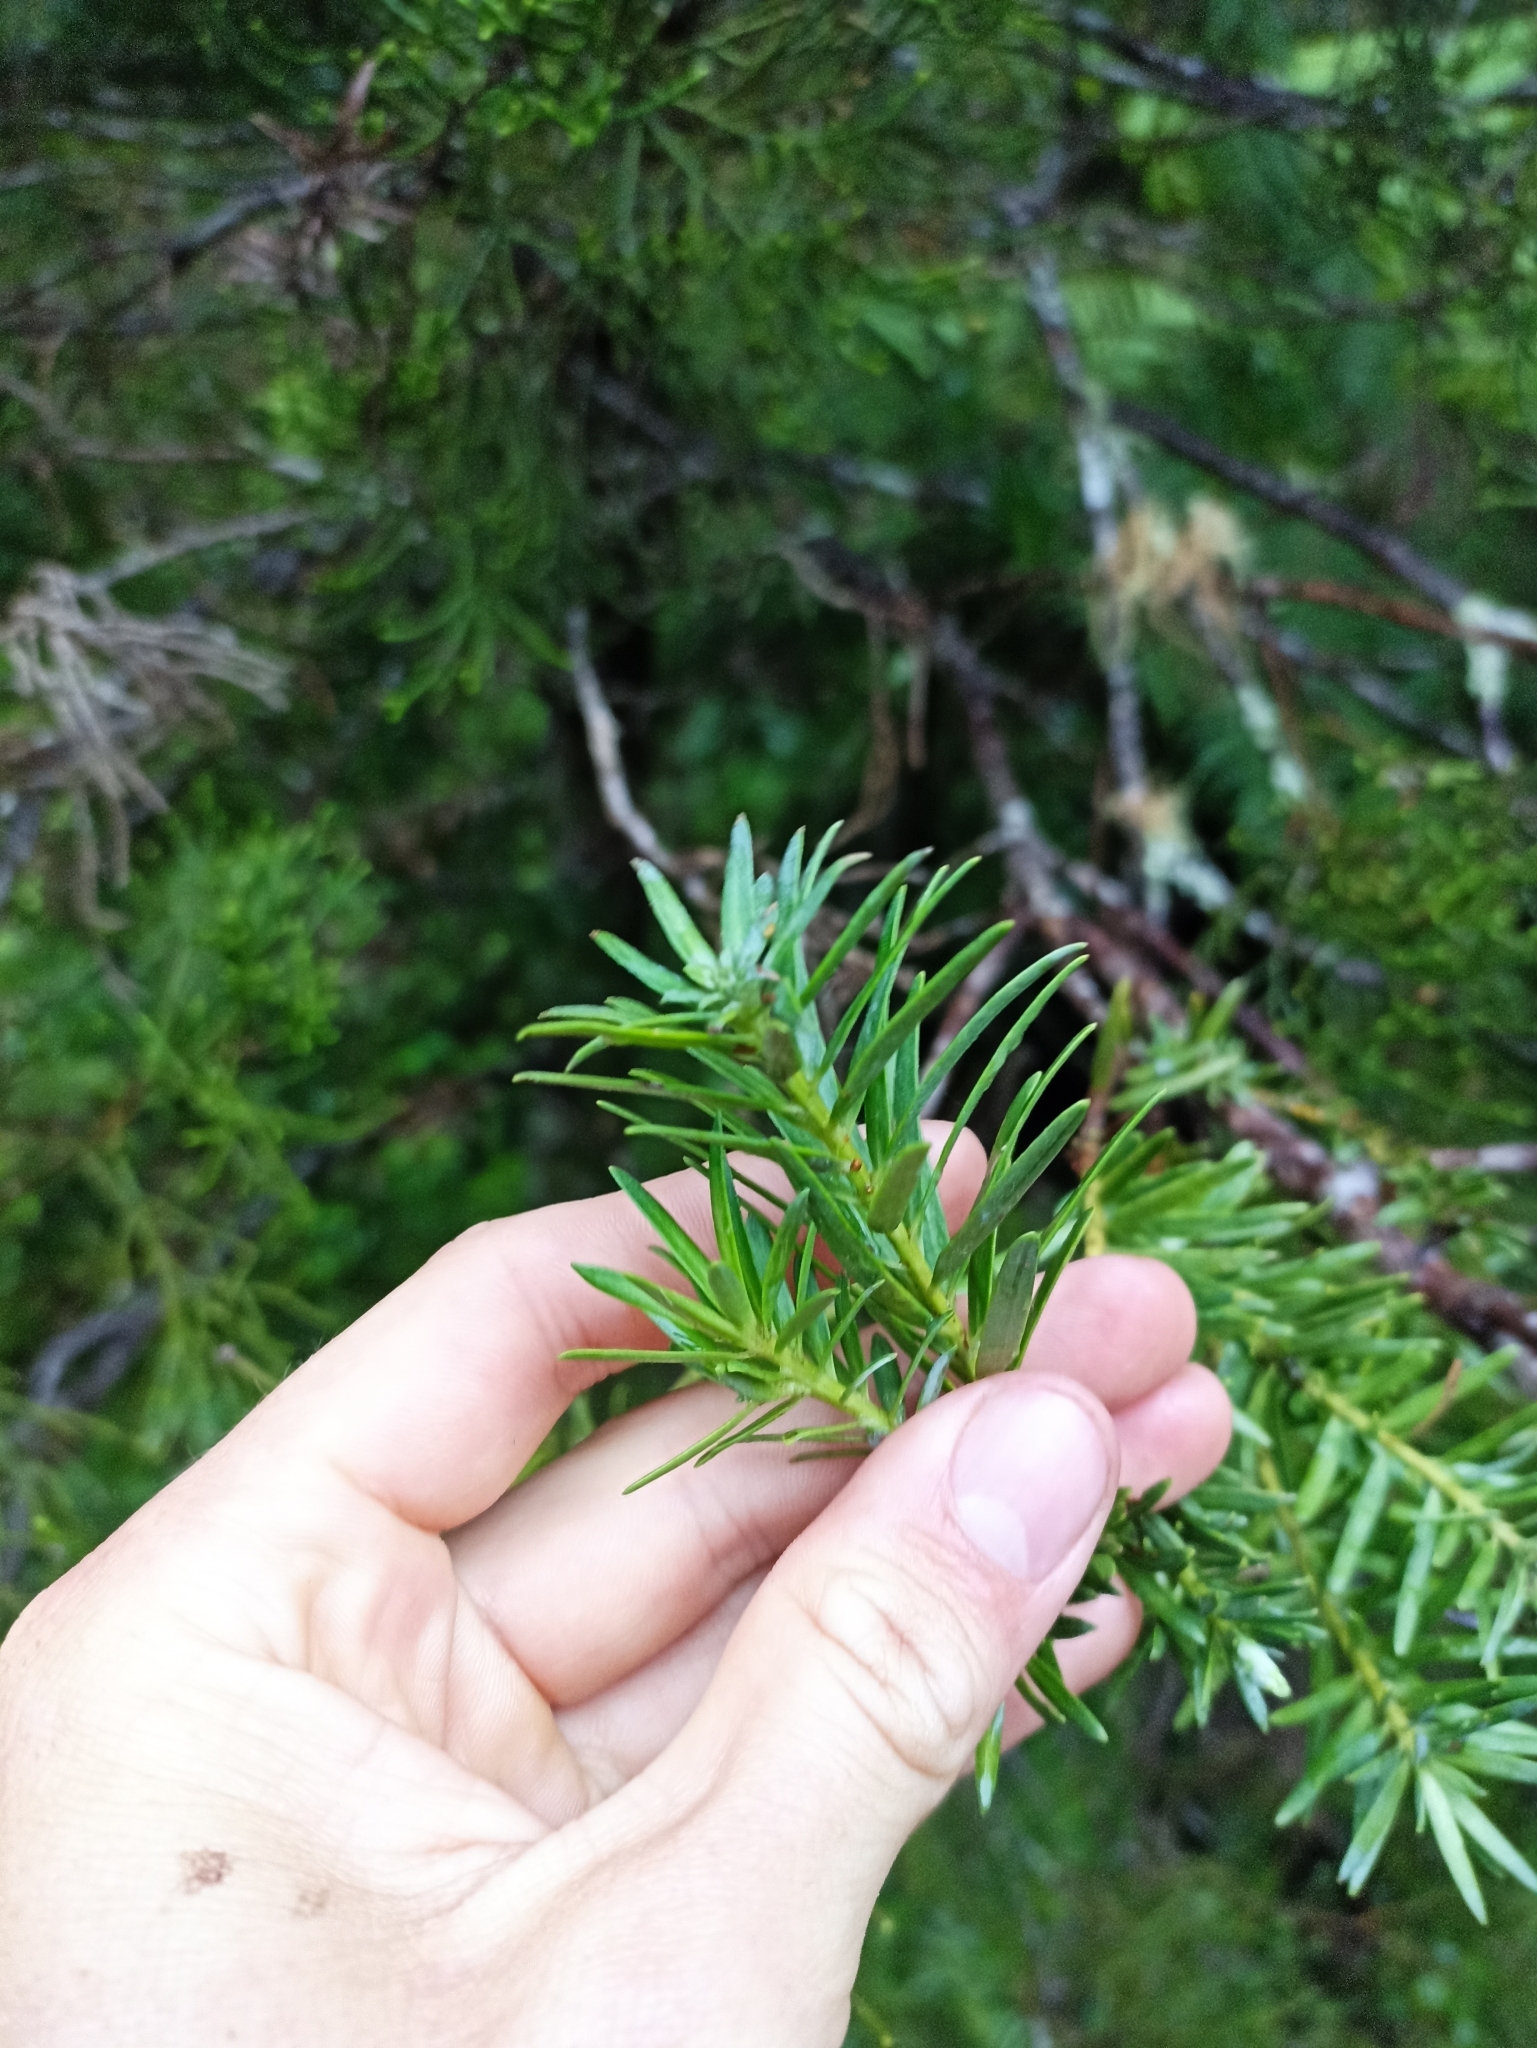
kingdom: Plantae
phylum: Tracheophyta
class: Pinopsida
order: Pinales
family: Podocarpaceae
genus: Halocarpus
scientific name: Halocarpus kirkii
